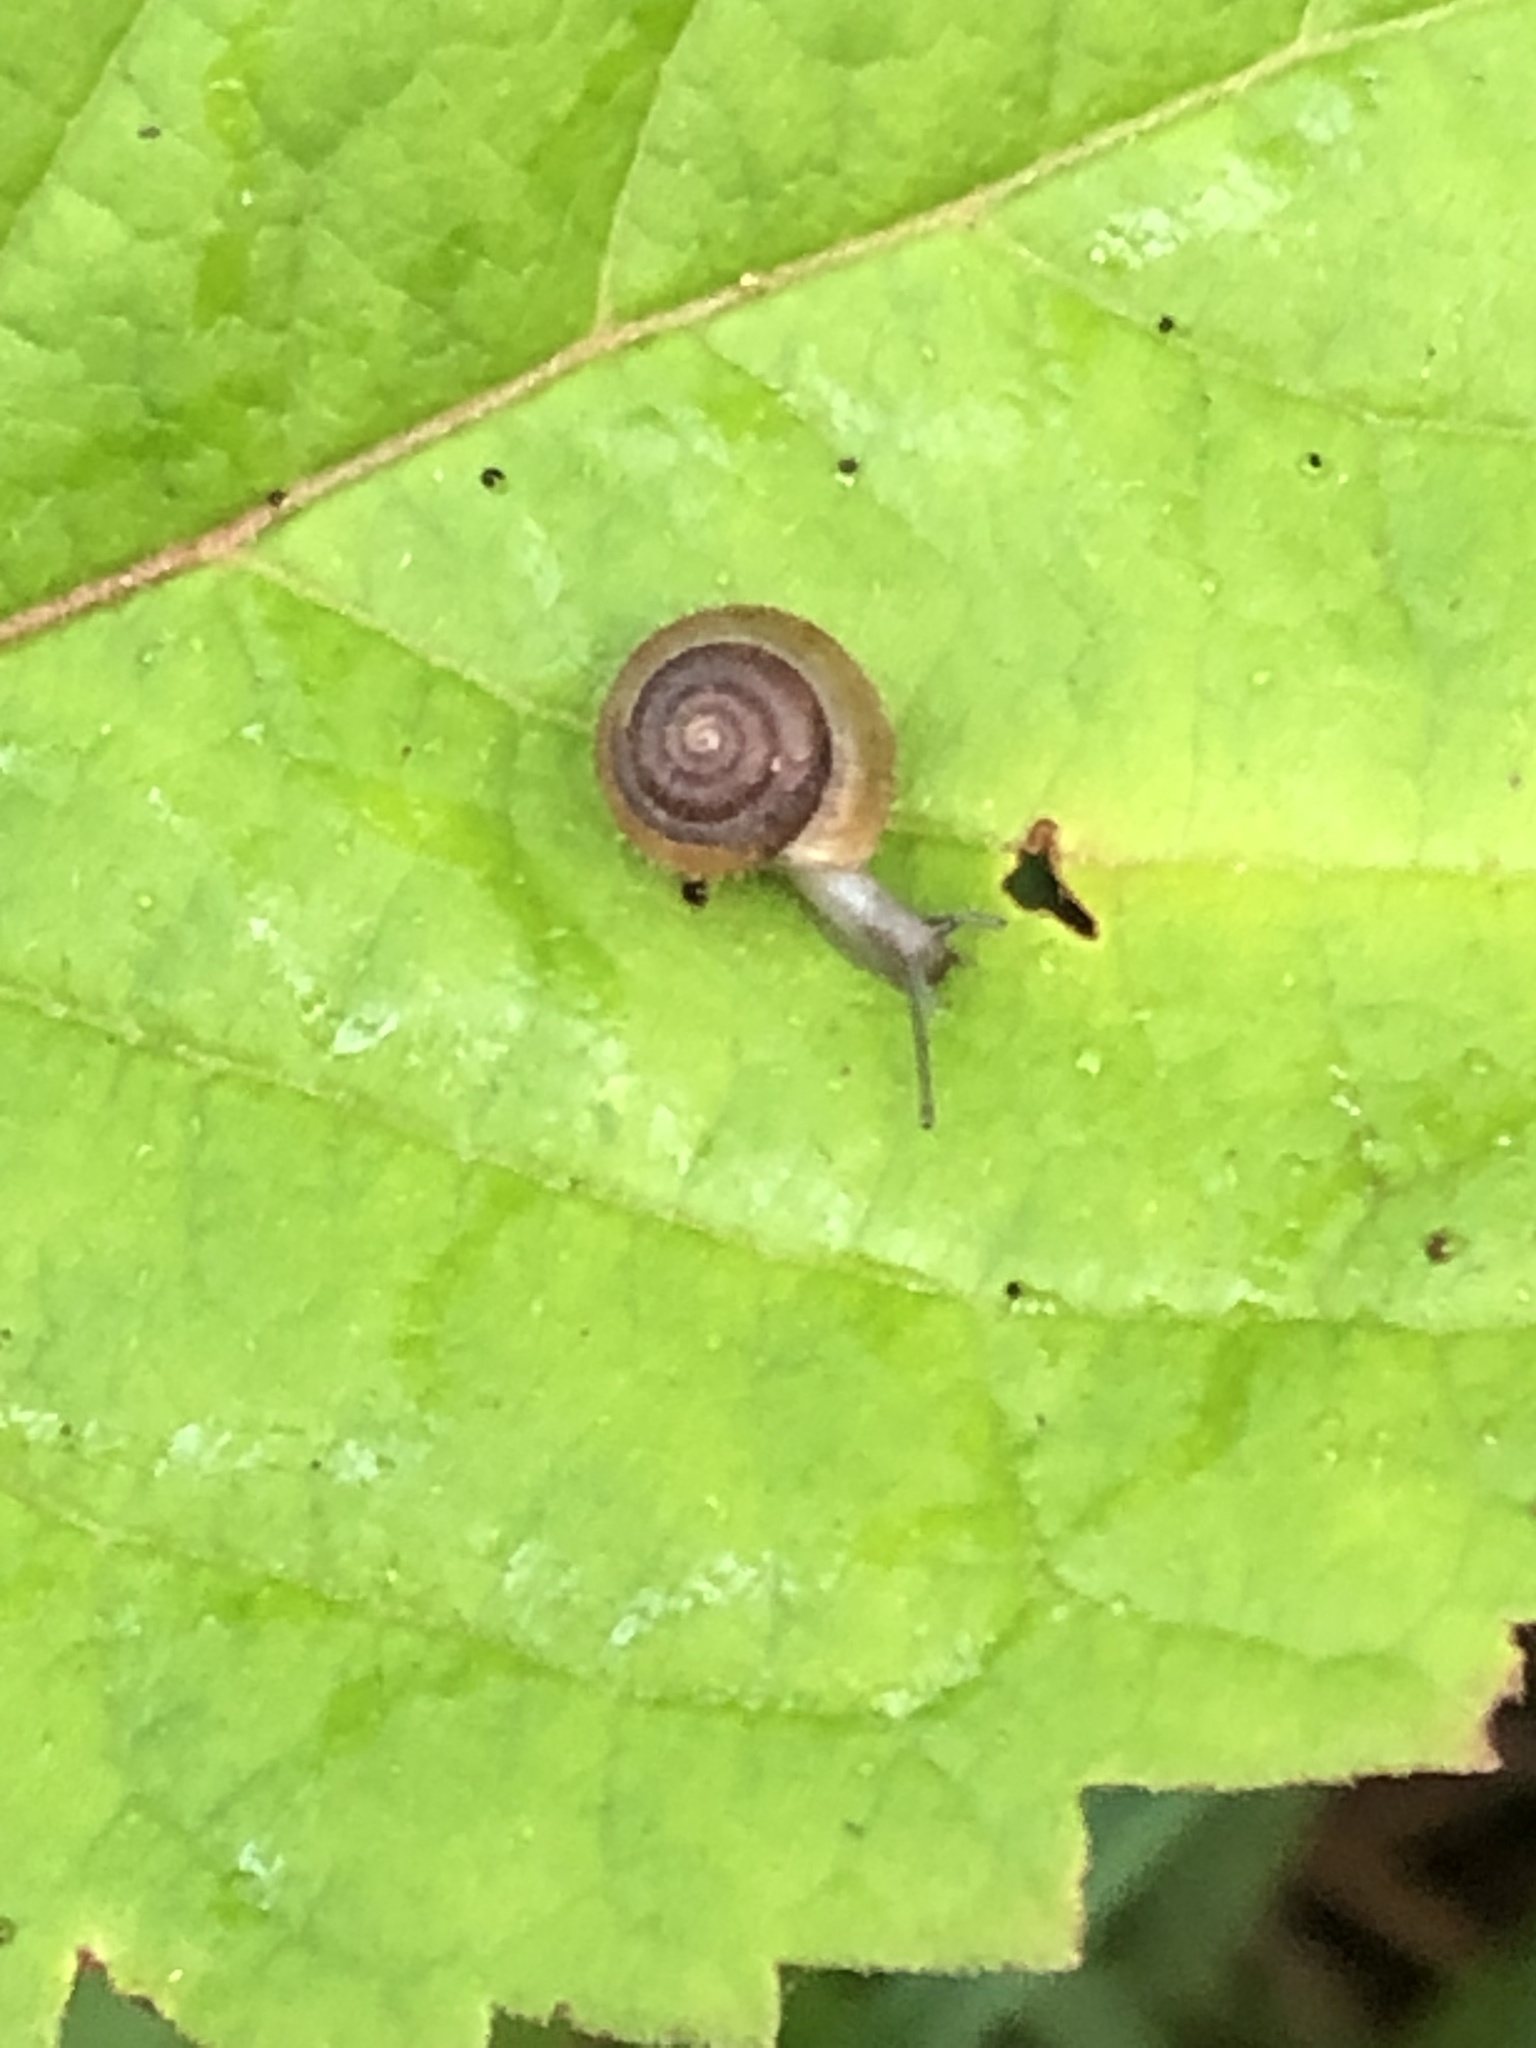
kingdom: Animalia
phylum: Mollusca
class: Gastropoda
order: Stylommatophora
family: Hygromiidae
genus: Trochulus
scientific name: Trochulus hispidus
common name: Hairy snail
